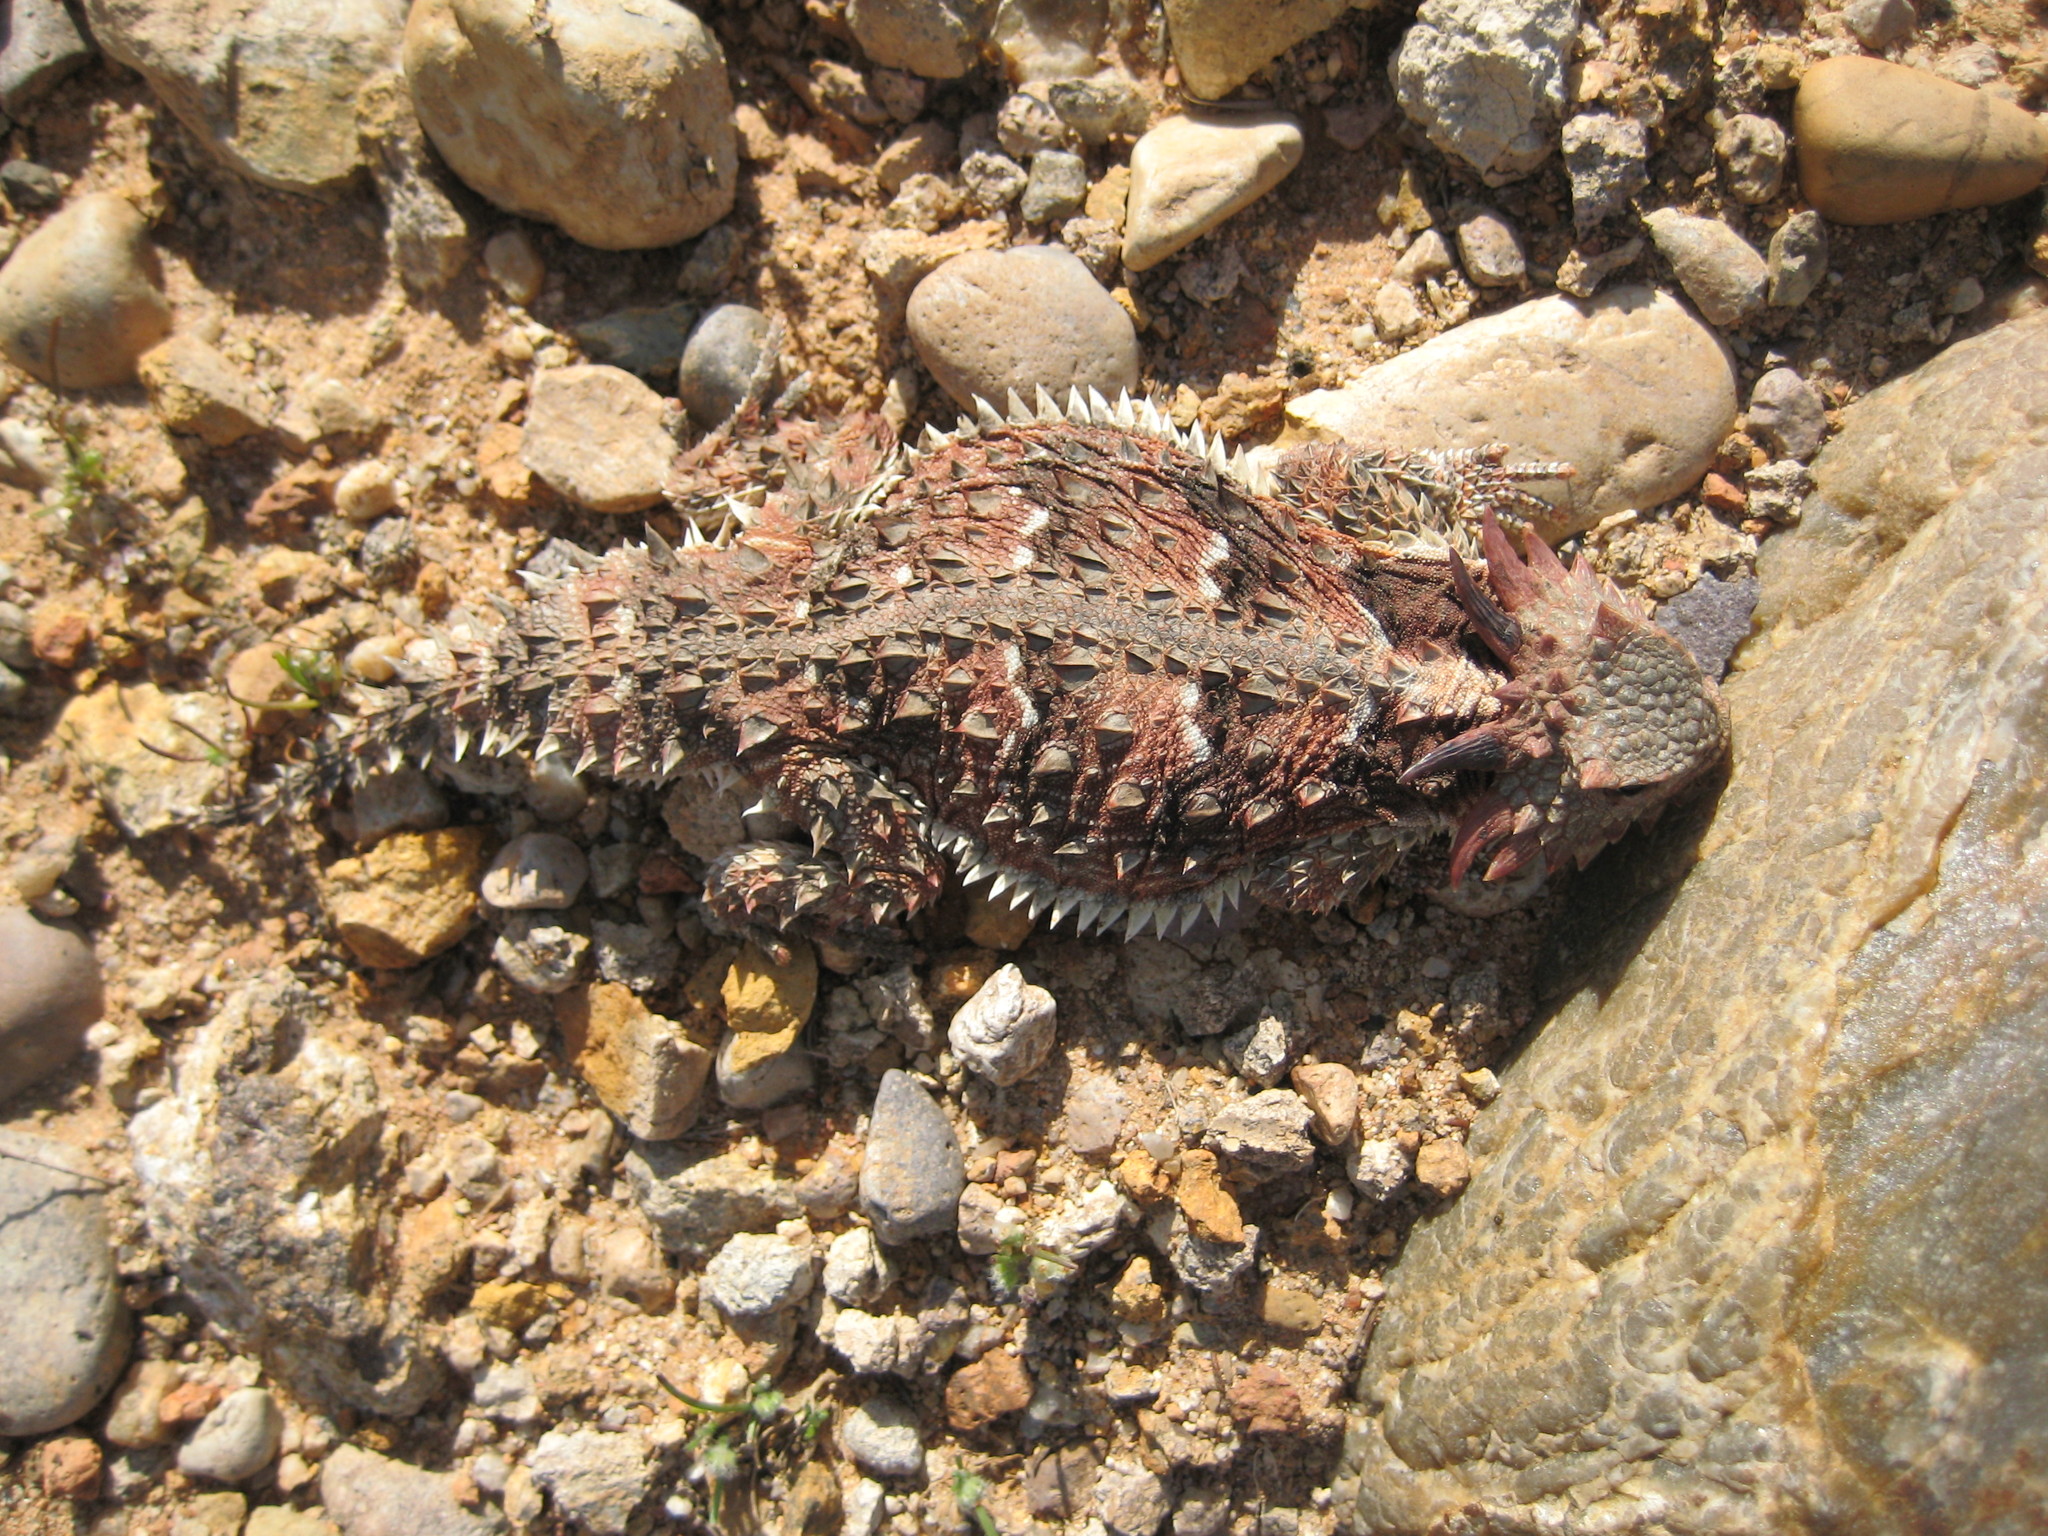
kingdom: Animalia
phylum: Chordata
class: Squamata
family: Phrynosomatidae
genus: Phrynosoma
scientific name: Phrynosoma blainvillii
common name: San diego horned lizard
